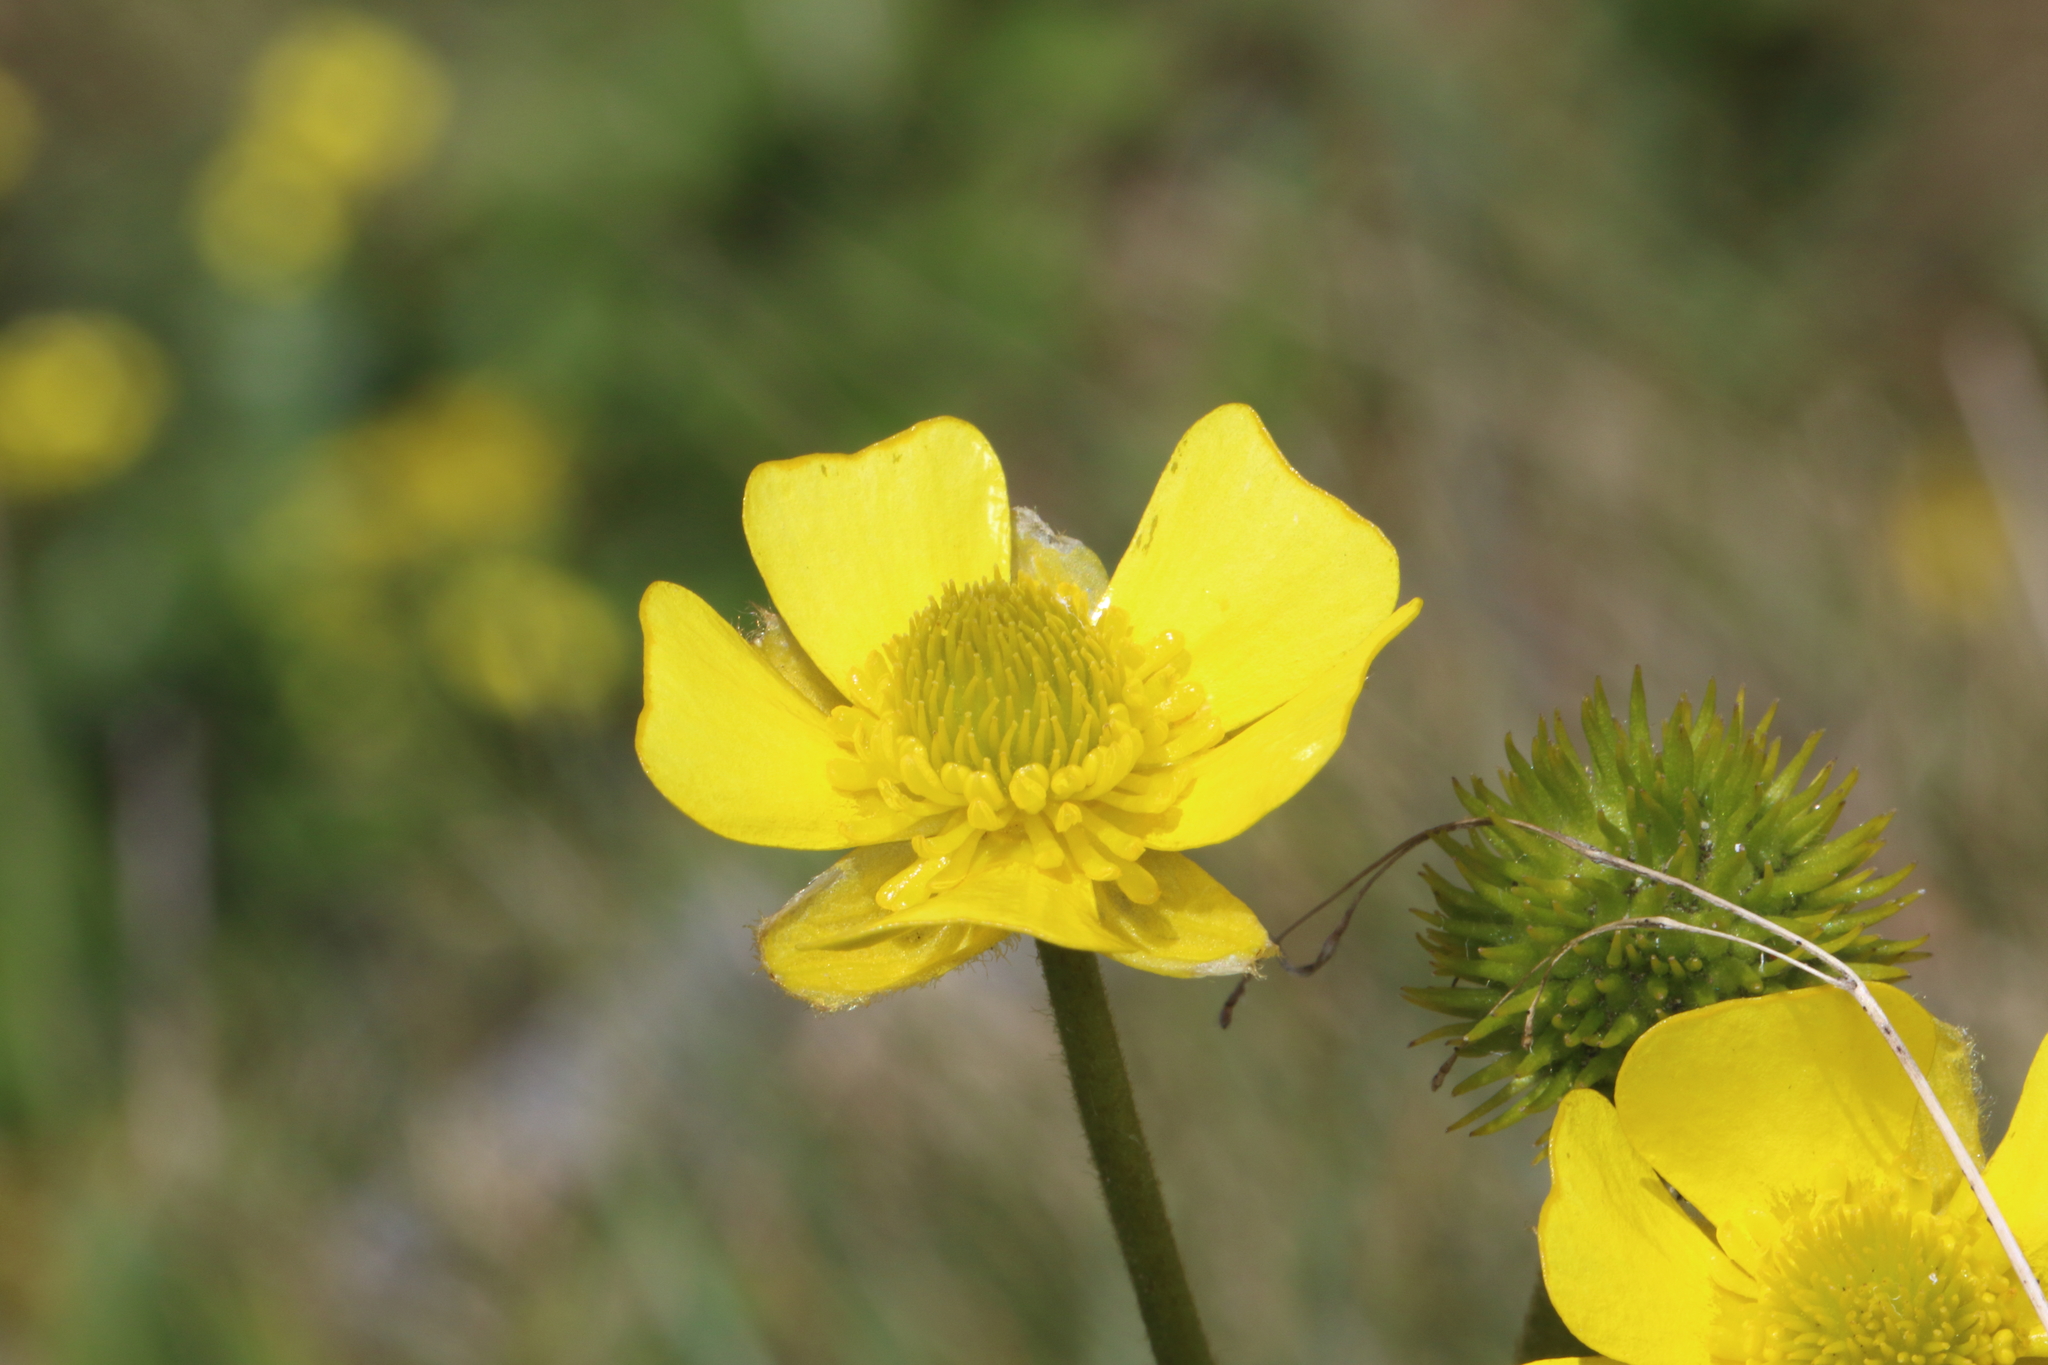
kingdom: Plantae
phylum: Tracheophyta
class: Magnoliopsida
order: Ranunculales
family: Ranunculaceae
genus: Ranunculus
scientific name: Ranunculus insignis
